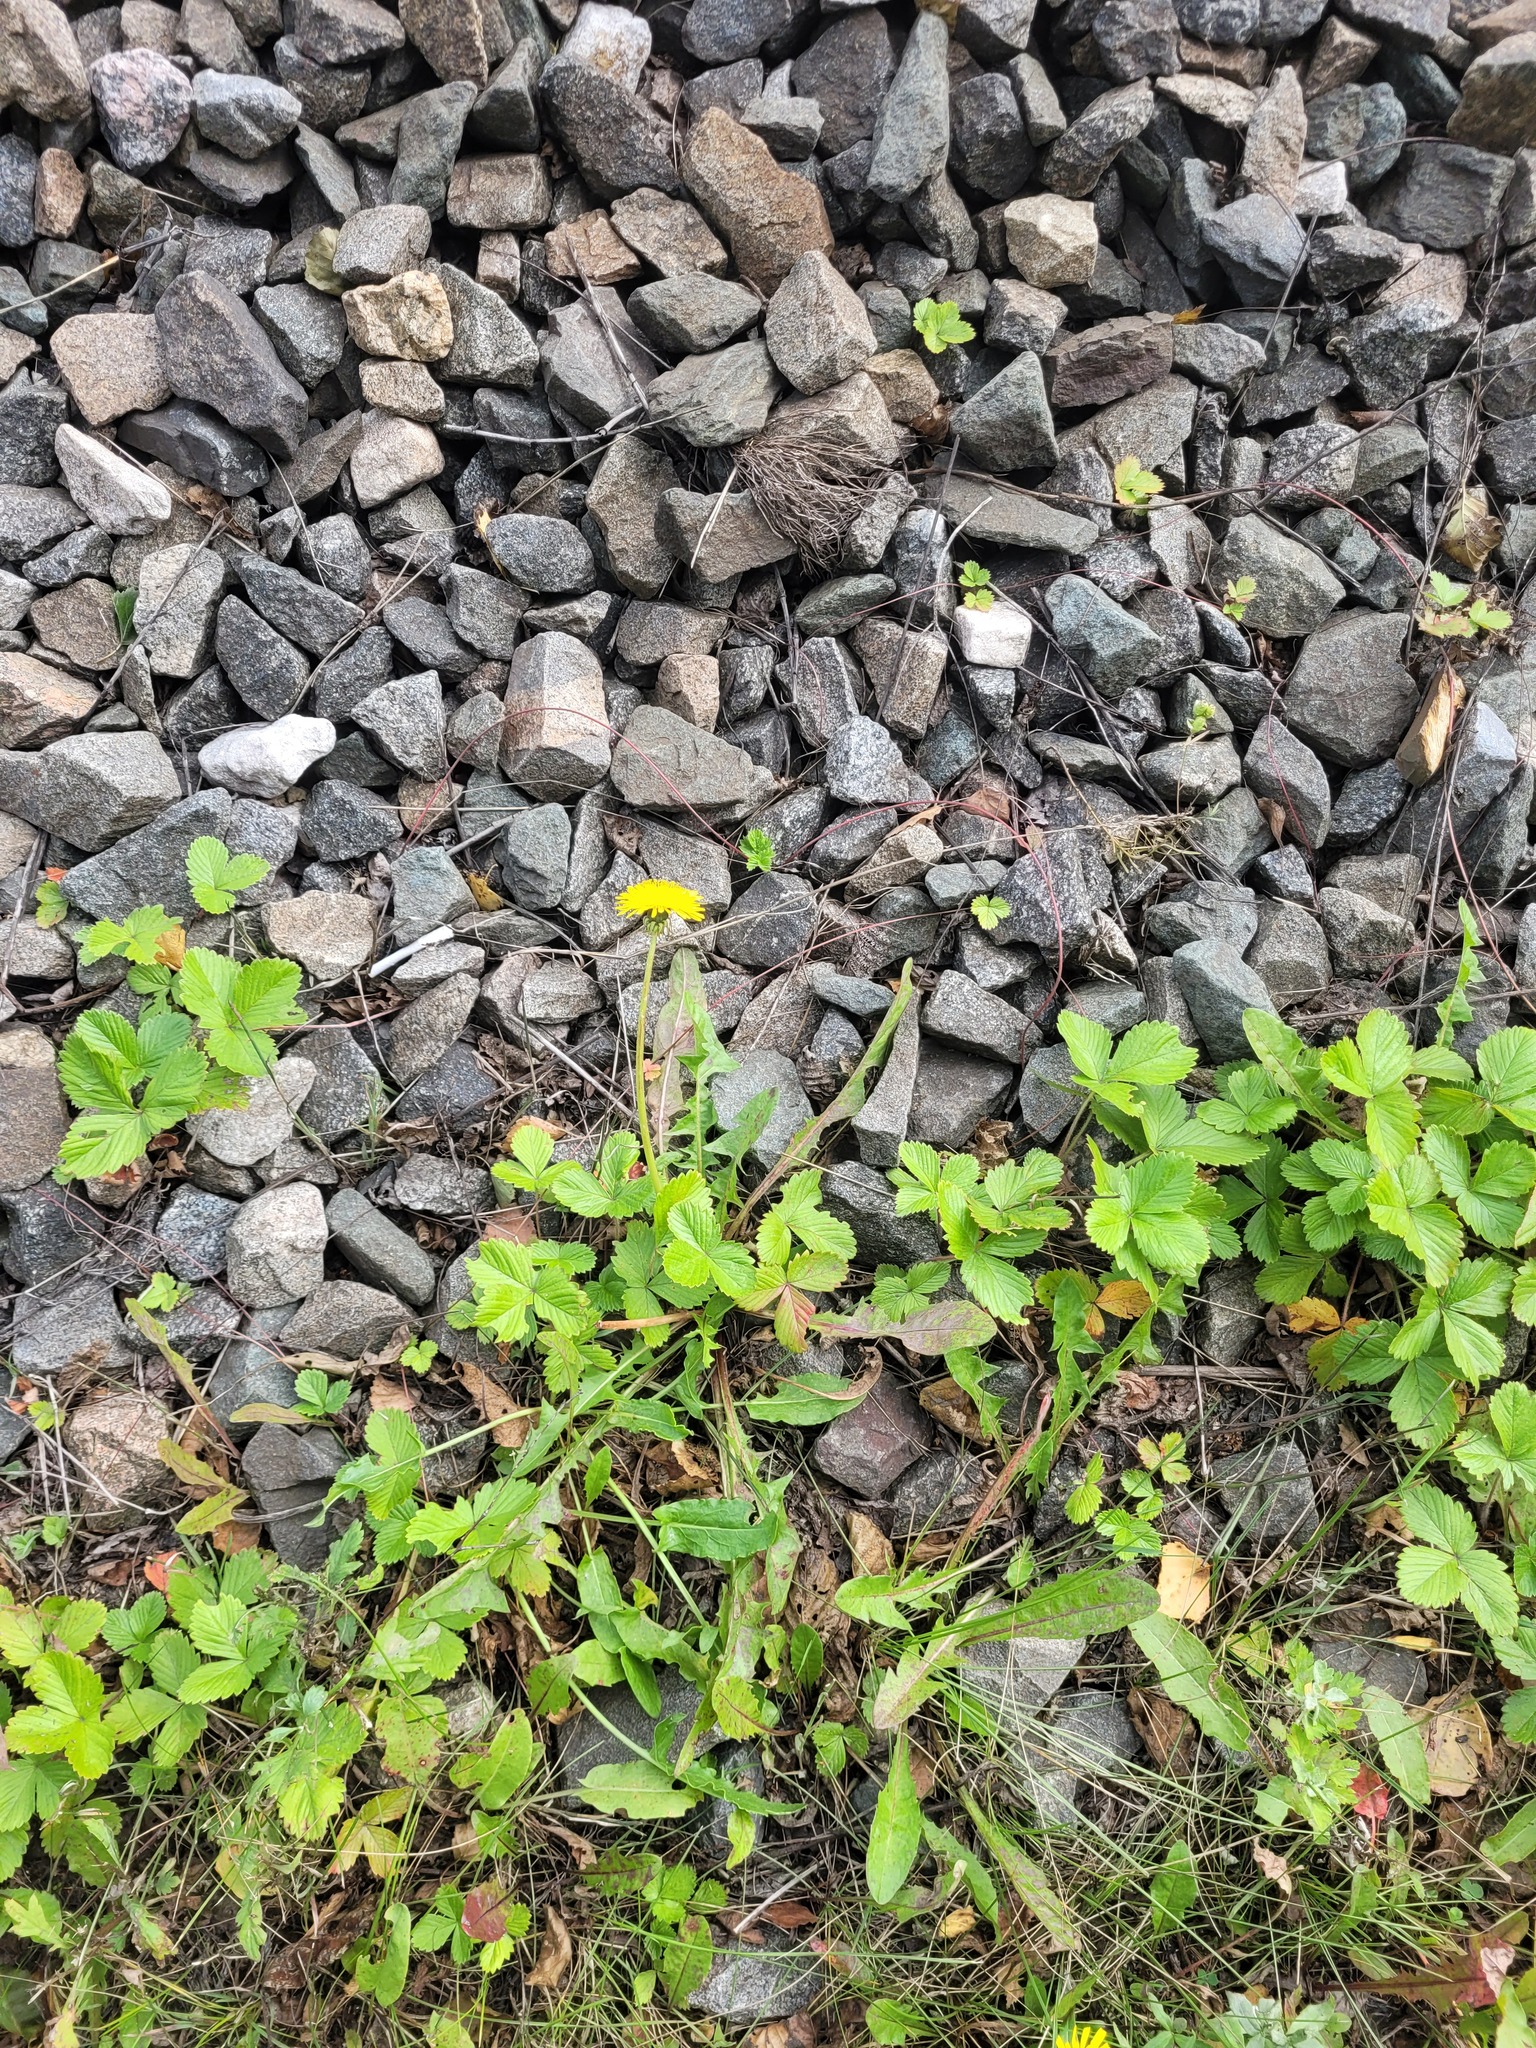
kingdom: Plantae
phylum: Tracheophyta
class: Magnoliopsida
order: Asterales
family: Asteraceae
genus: Taraxacum
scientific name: Taraxacum officinale
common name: Common dandelion
